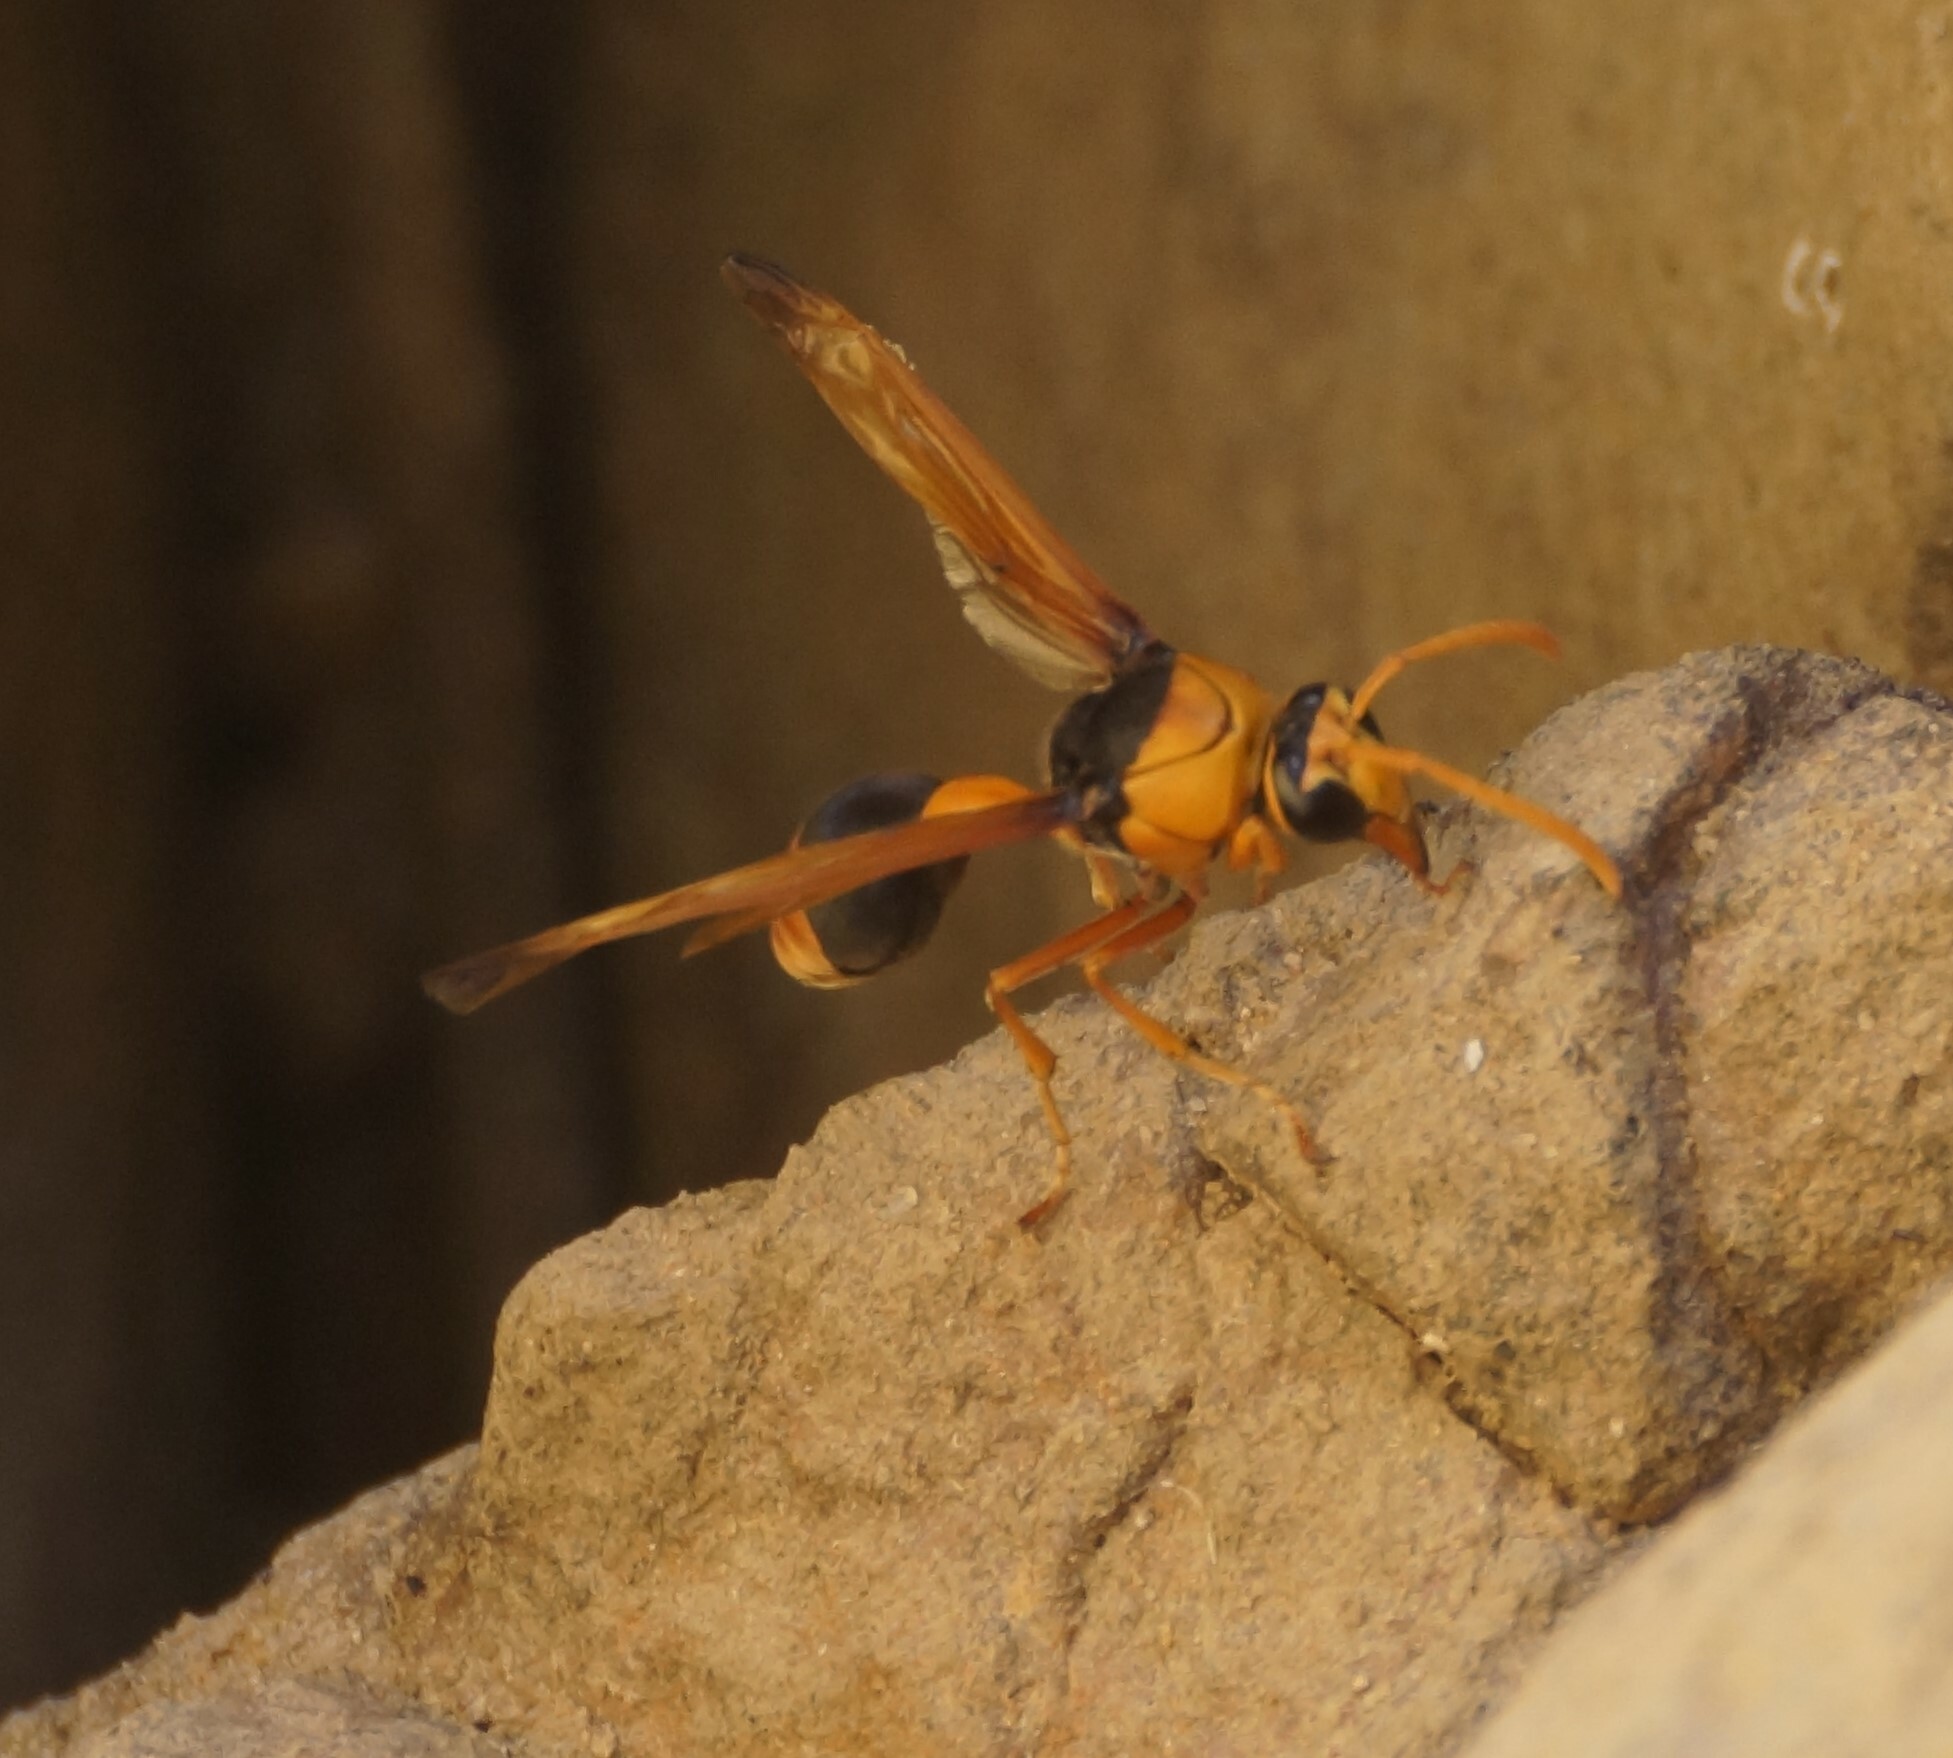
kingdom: Animalia
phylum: Arthropoda
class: Insecta
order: Hymenoptera
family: Eumenidae
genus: Delta
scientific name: Delta latreillei
